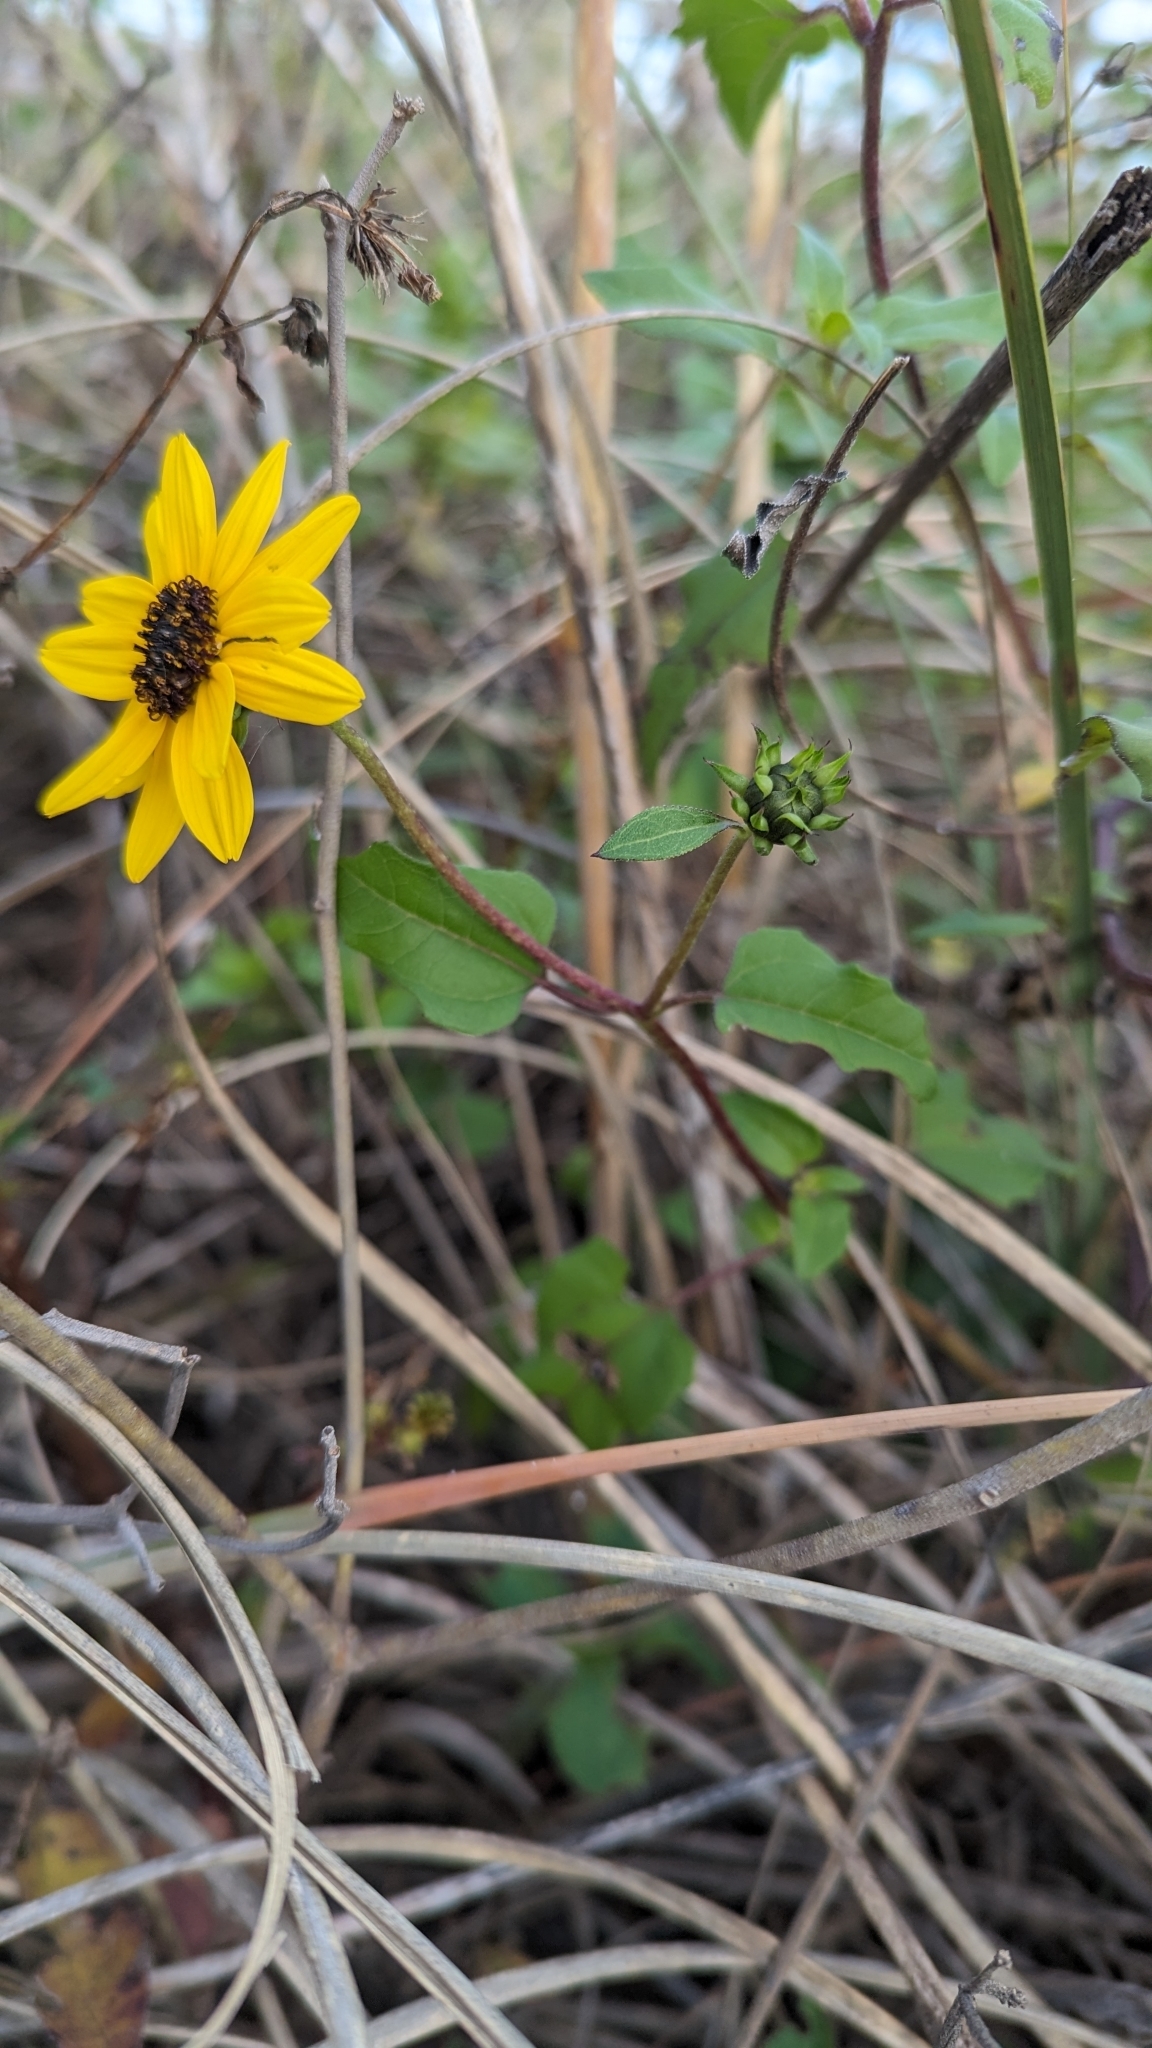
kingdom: Plantae
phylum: Tracheophyta
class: Magnoliopsida
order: Asterales
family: Asteraceae
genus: Helianthus
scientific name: Helianthus debilis
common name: Weak sunflower
